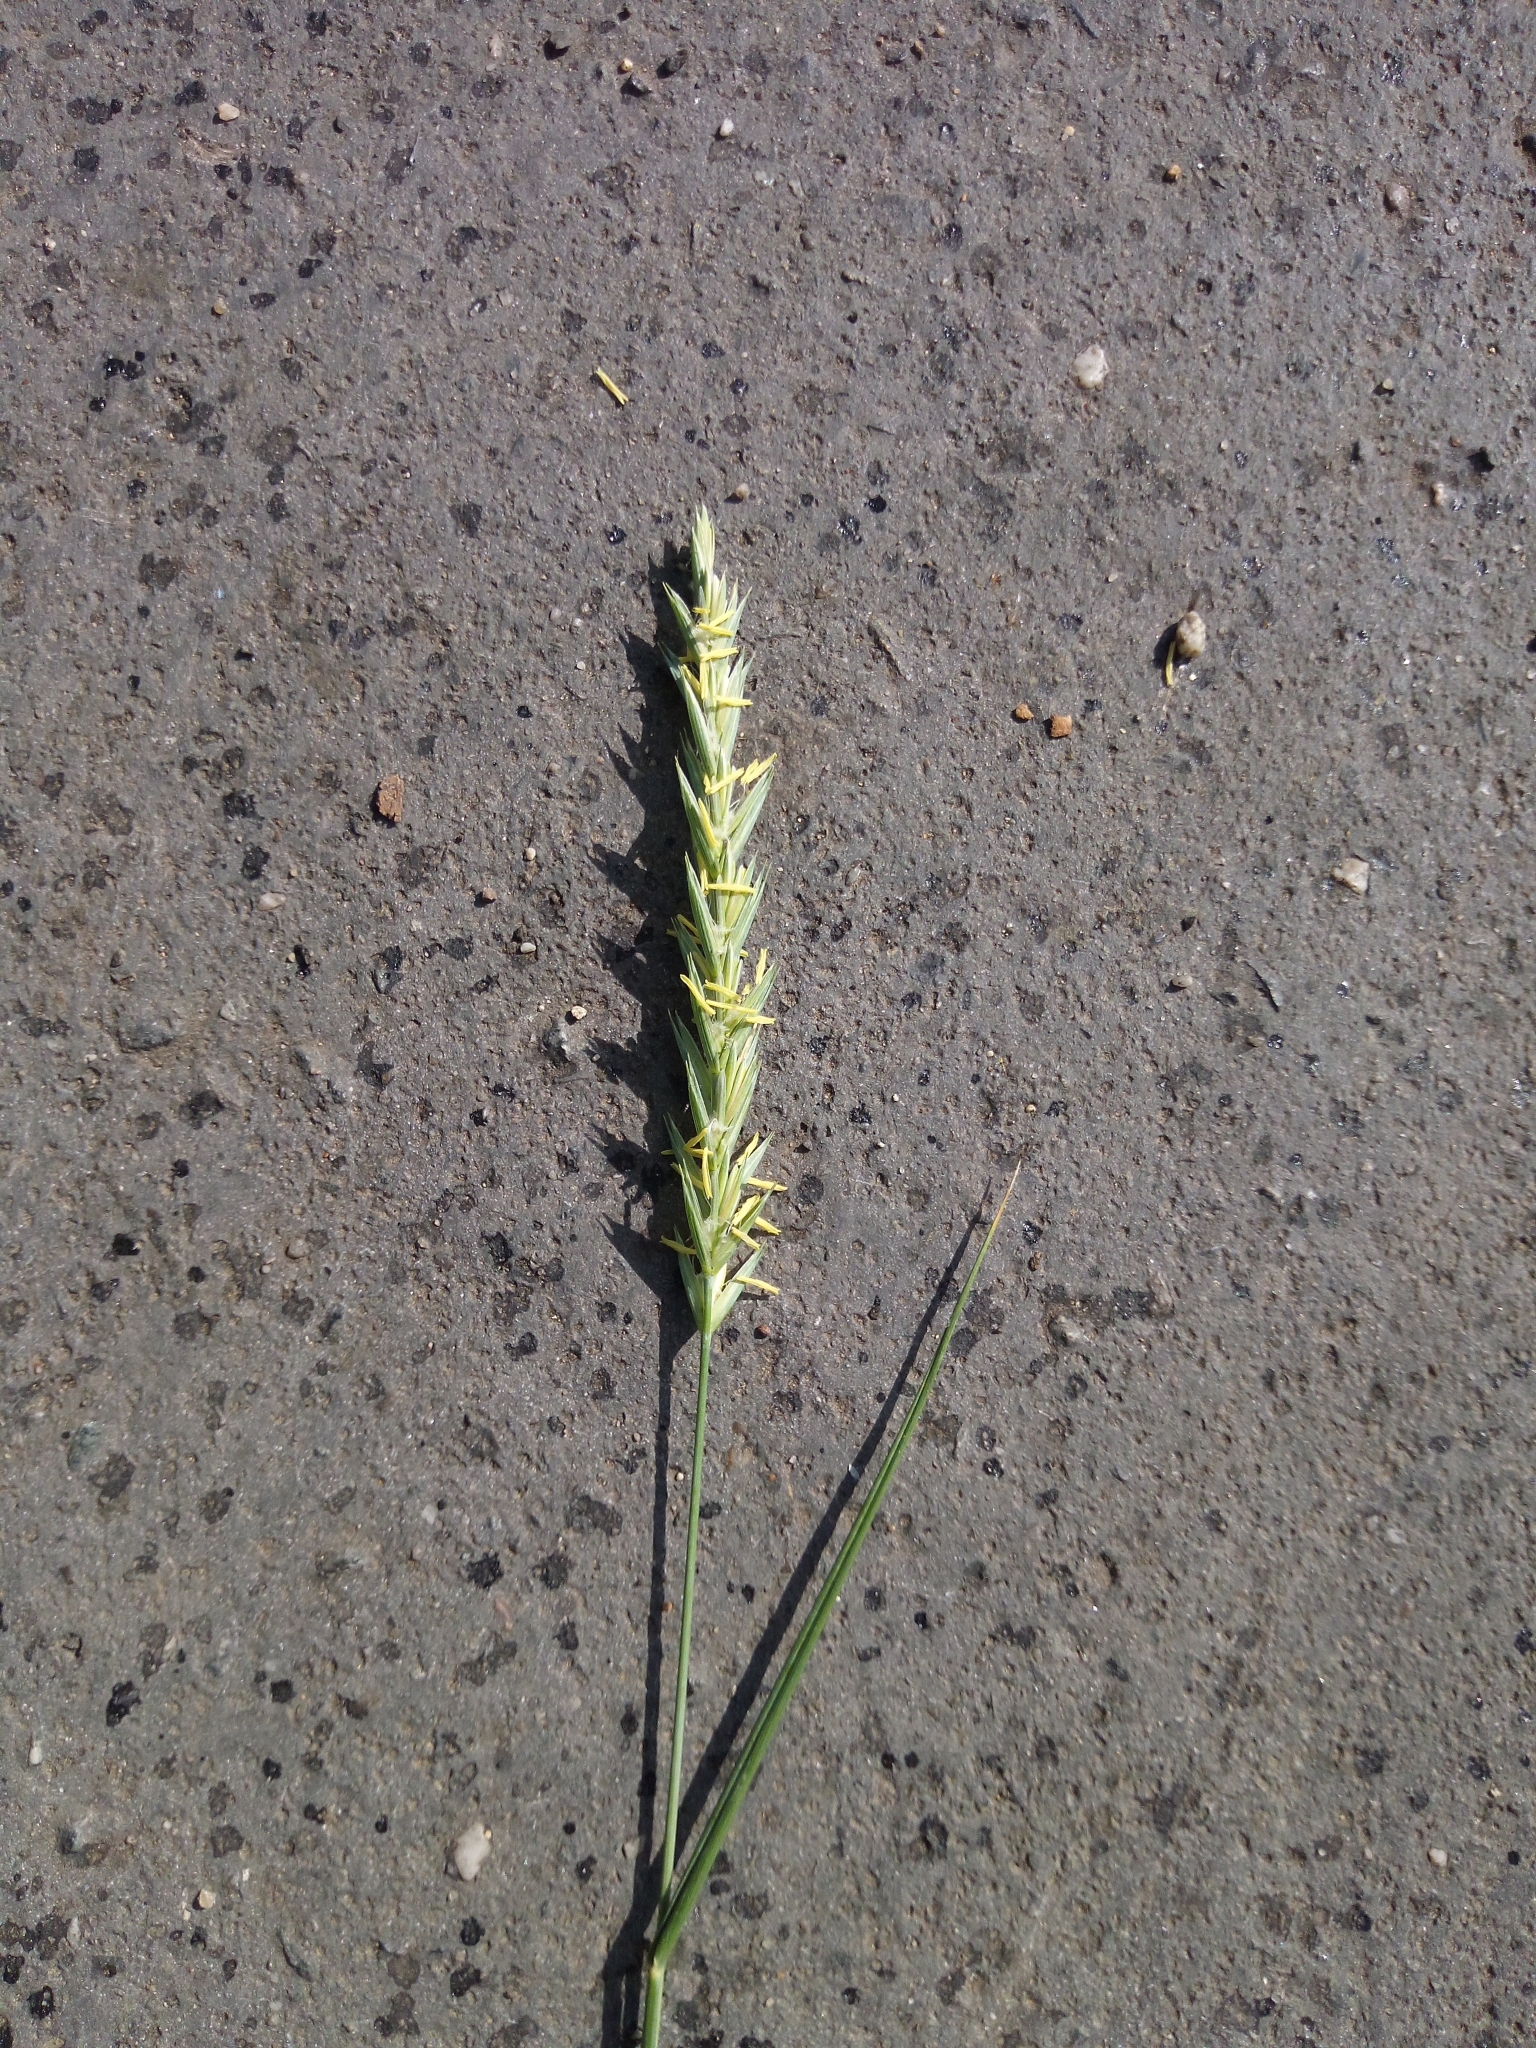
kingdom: Plantae
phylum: Tracheophyta
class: Liliopsida
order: Poales
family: Poaceae
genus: Elymus
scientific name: Elymus repens
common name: Quackgrass
